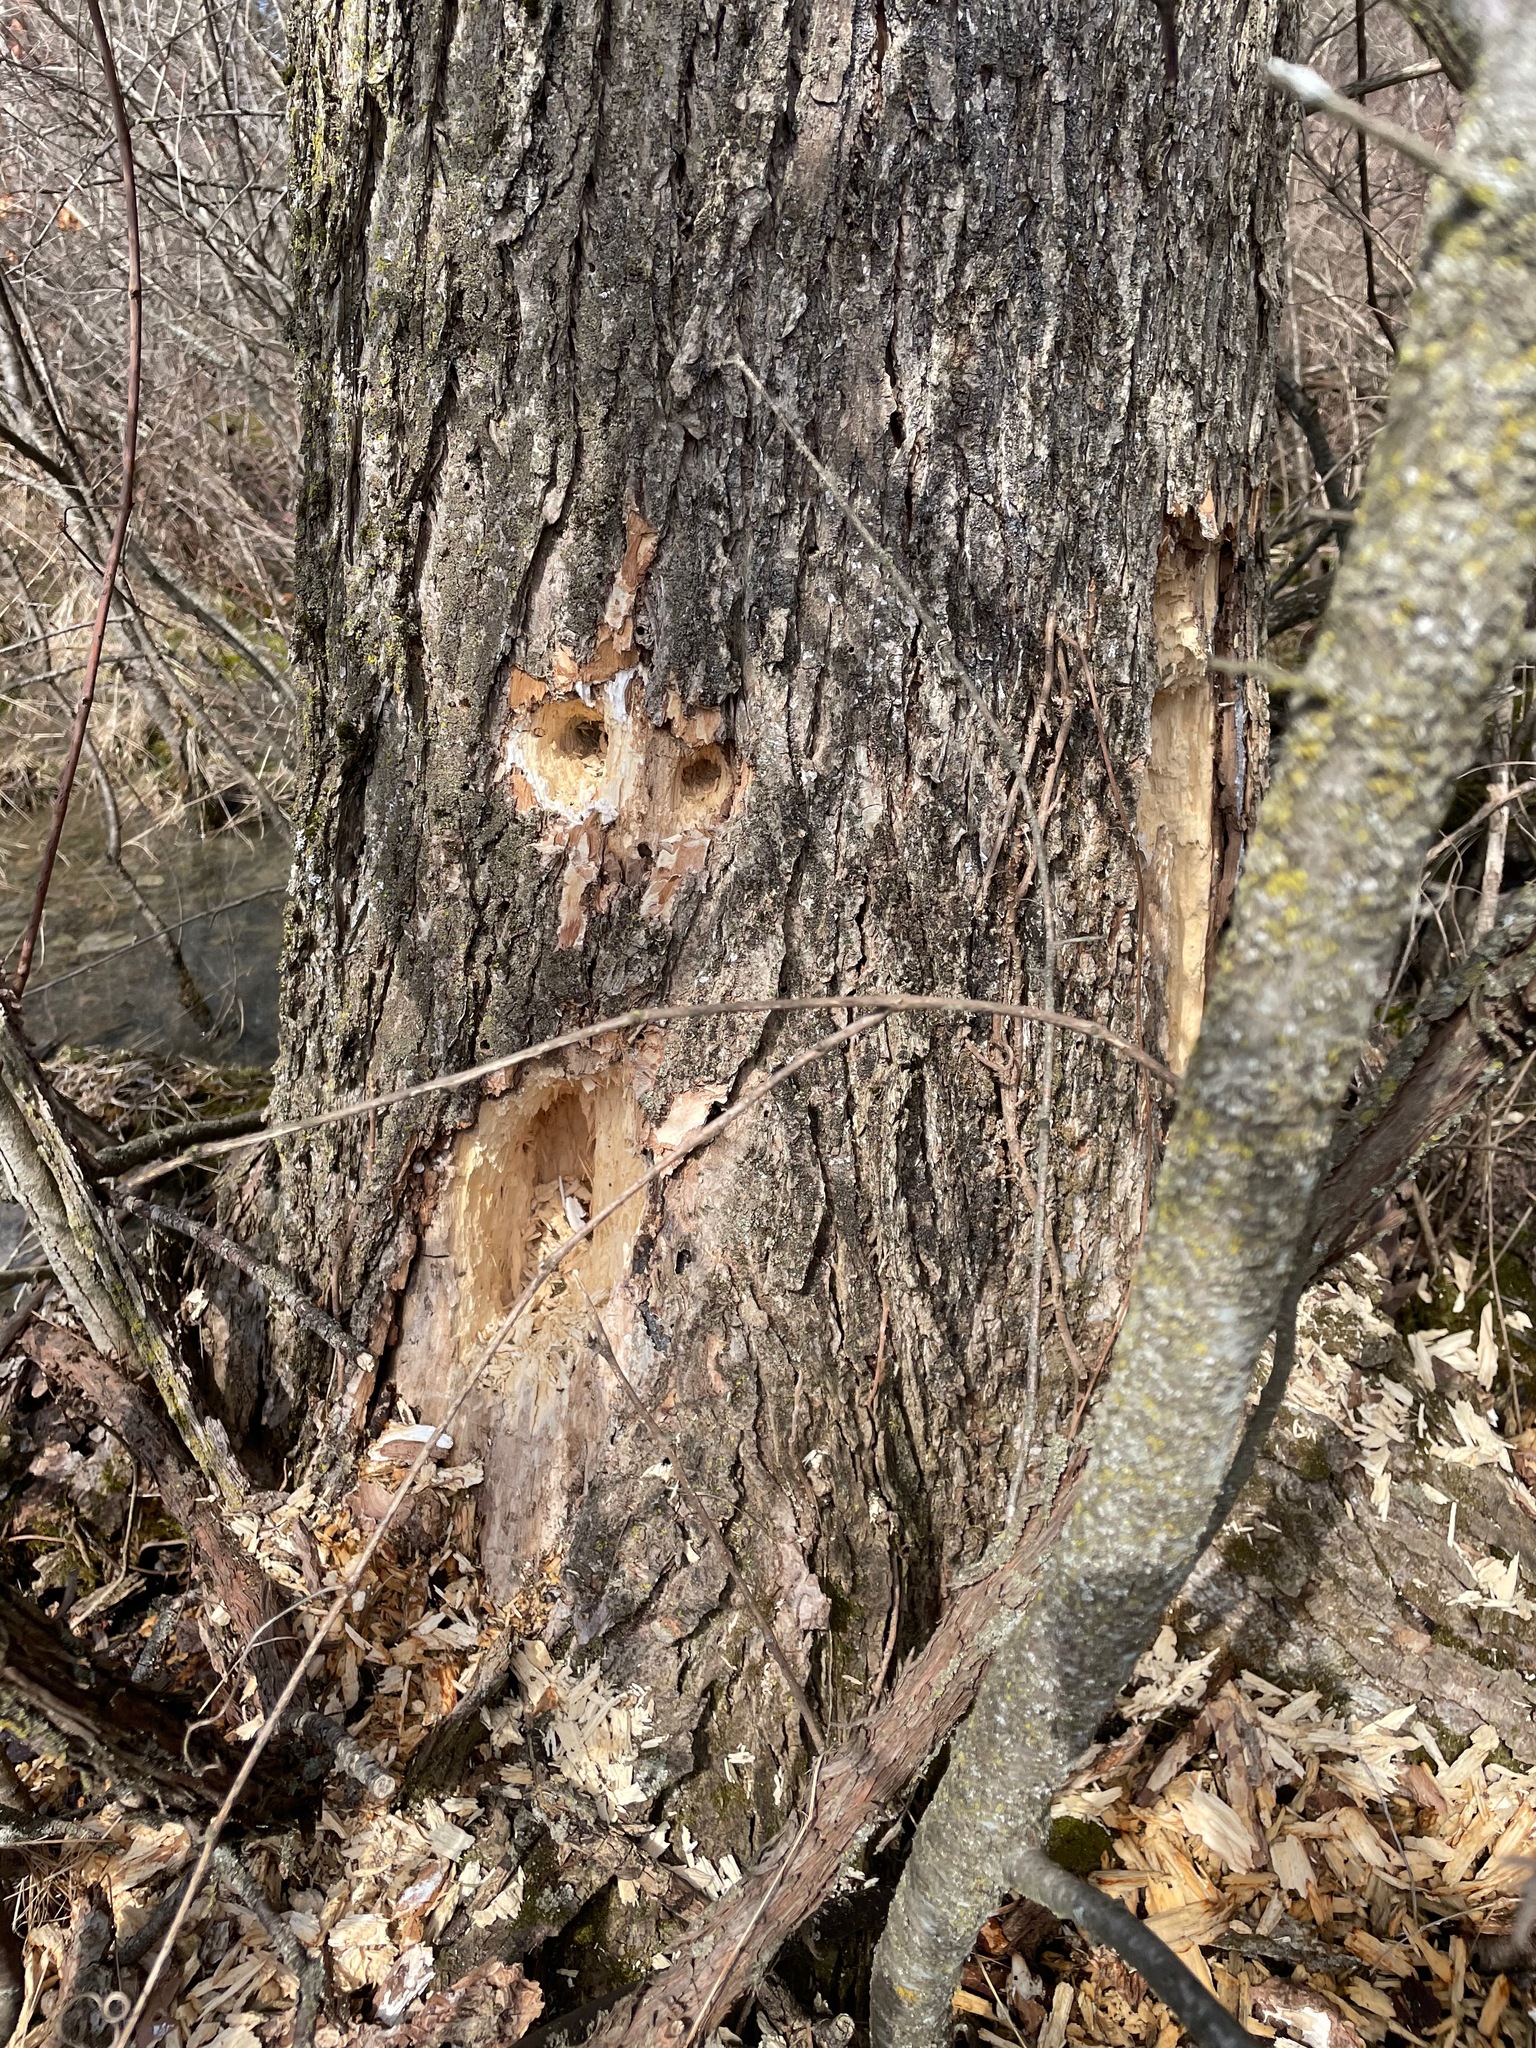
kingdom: Animalia
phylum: Chordata
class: Aves
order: Piciformes
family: Picidae
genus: Dryocopus
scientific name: Dryocopus pileatus
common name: Pileated woodpecker
